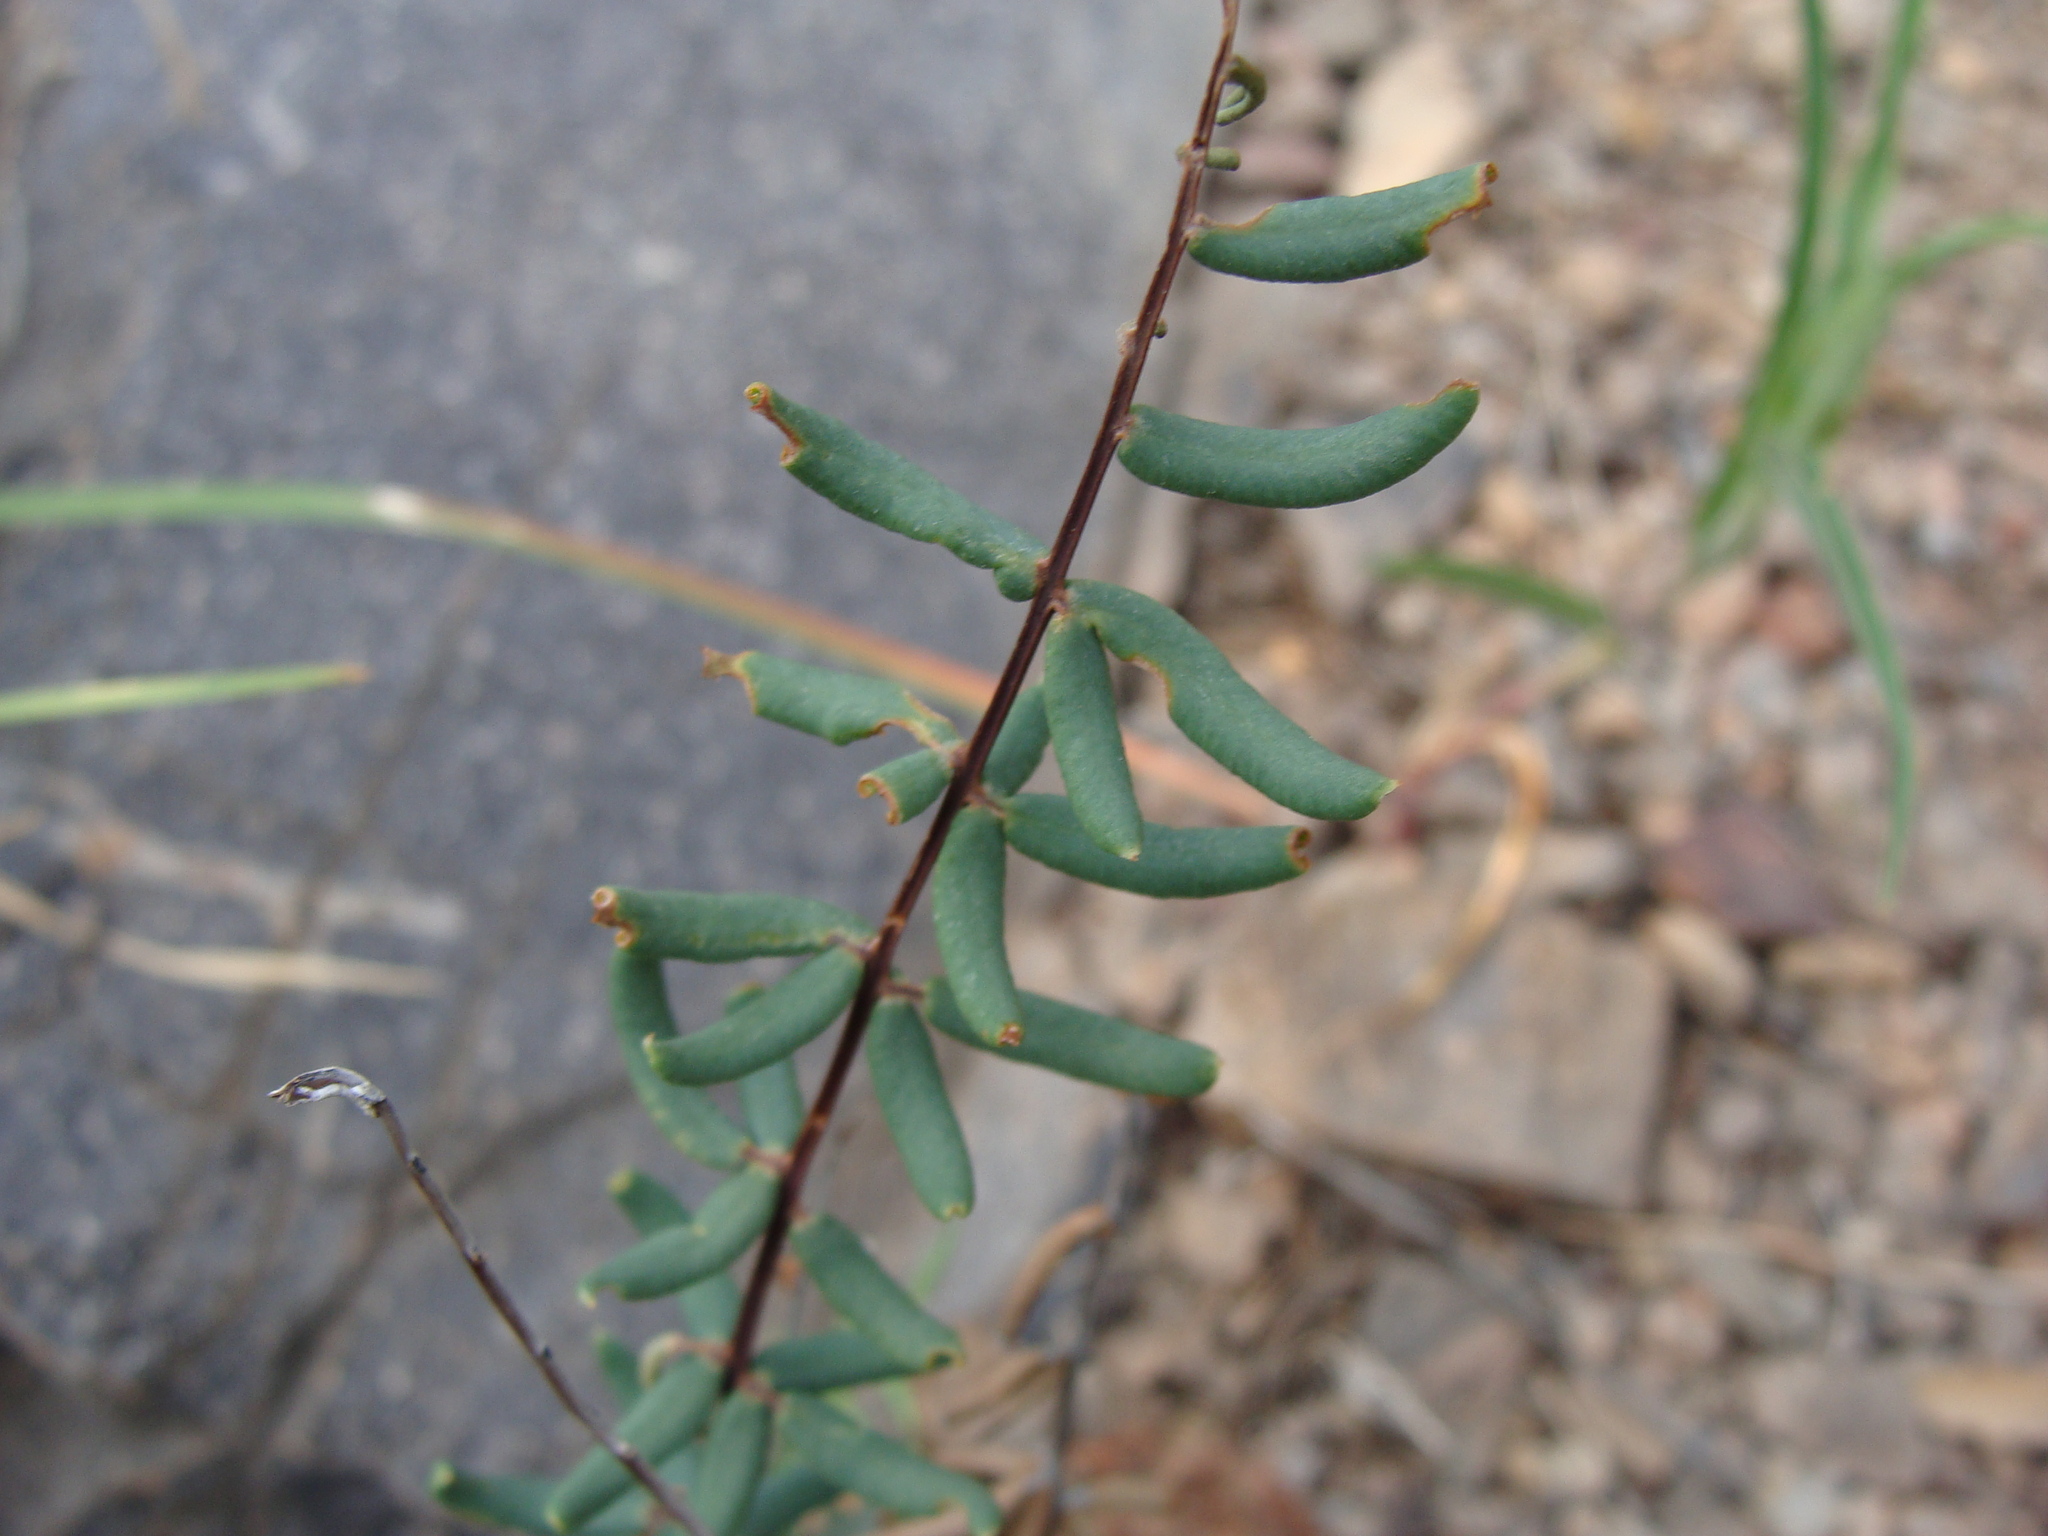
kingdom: Plantae
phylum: Tracheophyta
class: Polypodiopsida
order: Polypodiales
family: Pteridaceae
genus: Pellaea
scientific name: Pellaea wrightiana
